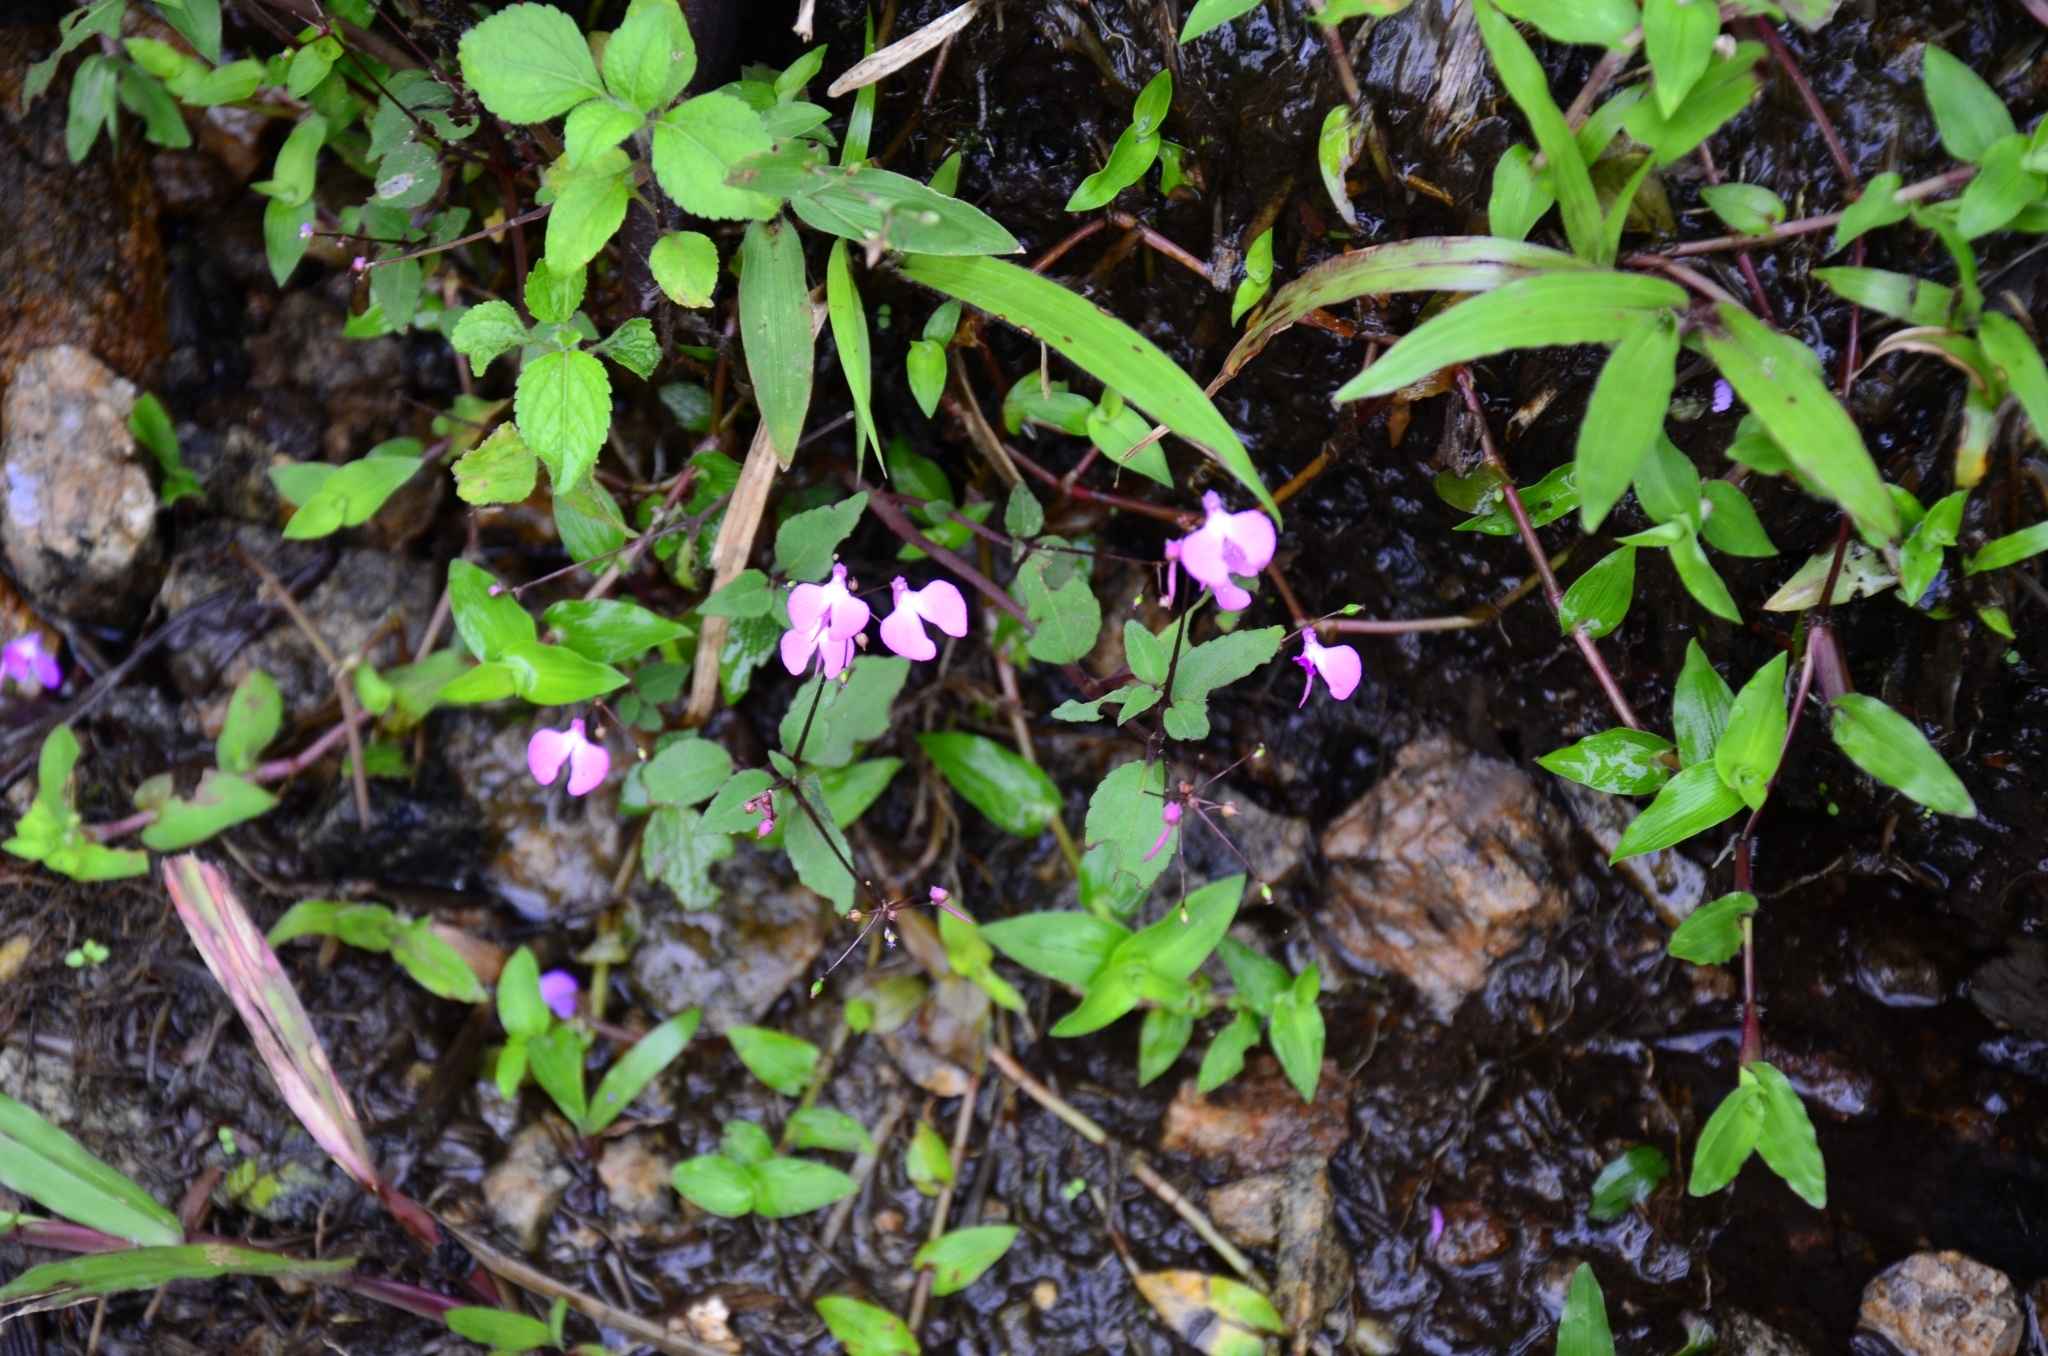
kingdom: Plantae
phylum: Tracheophyta
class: Magnoliopsida
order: Ericales
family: Balsaminaceae
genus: Impatiens
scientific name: Impatiens viscosa
